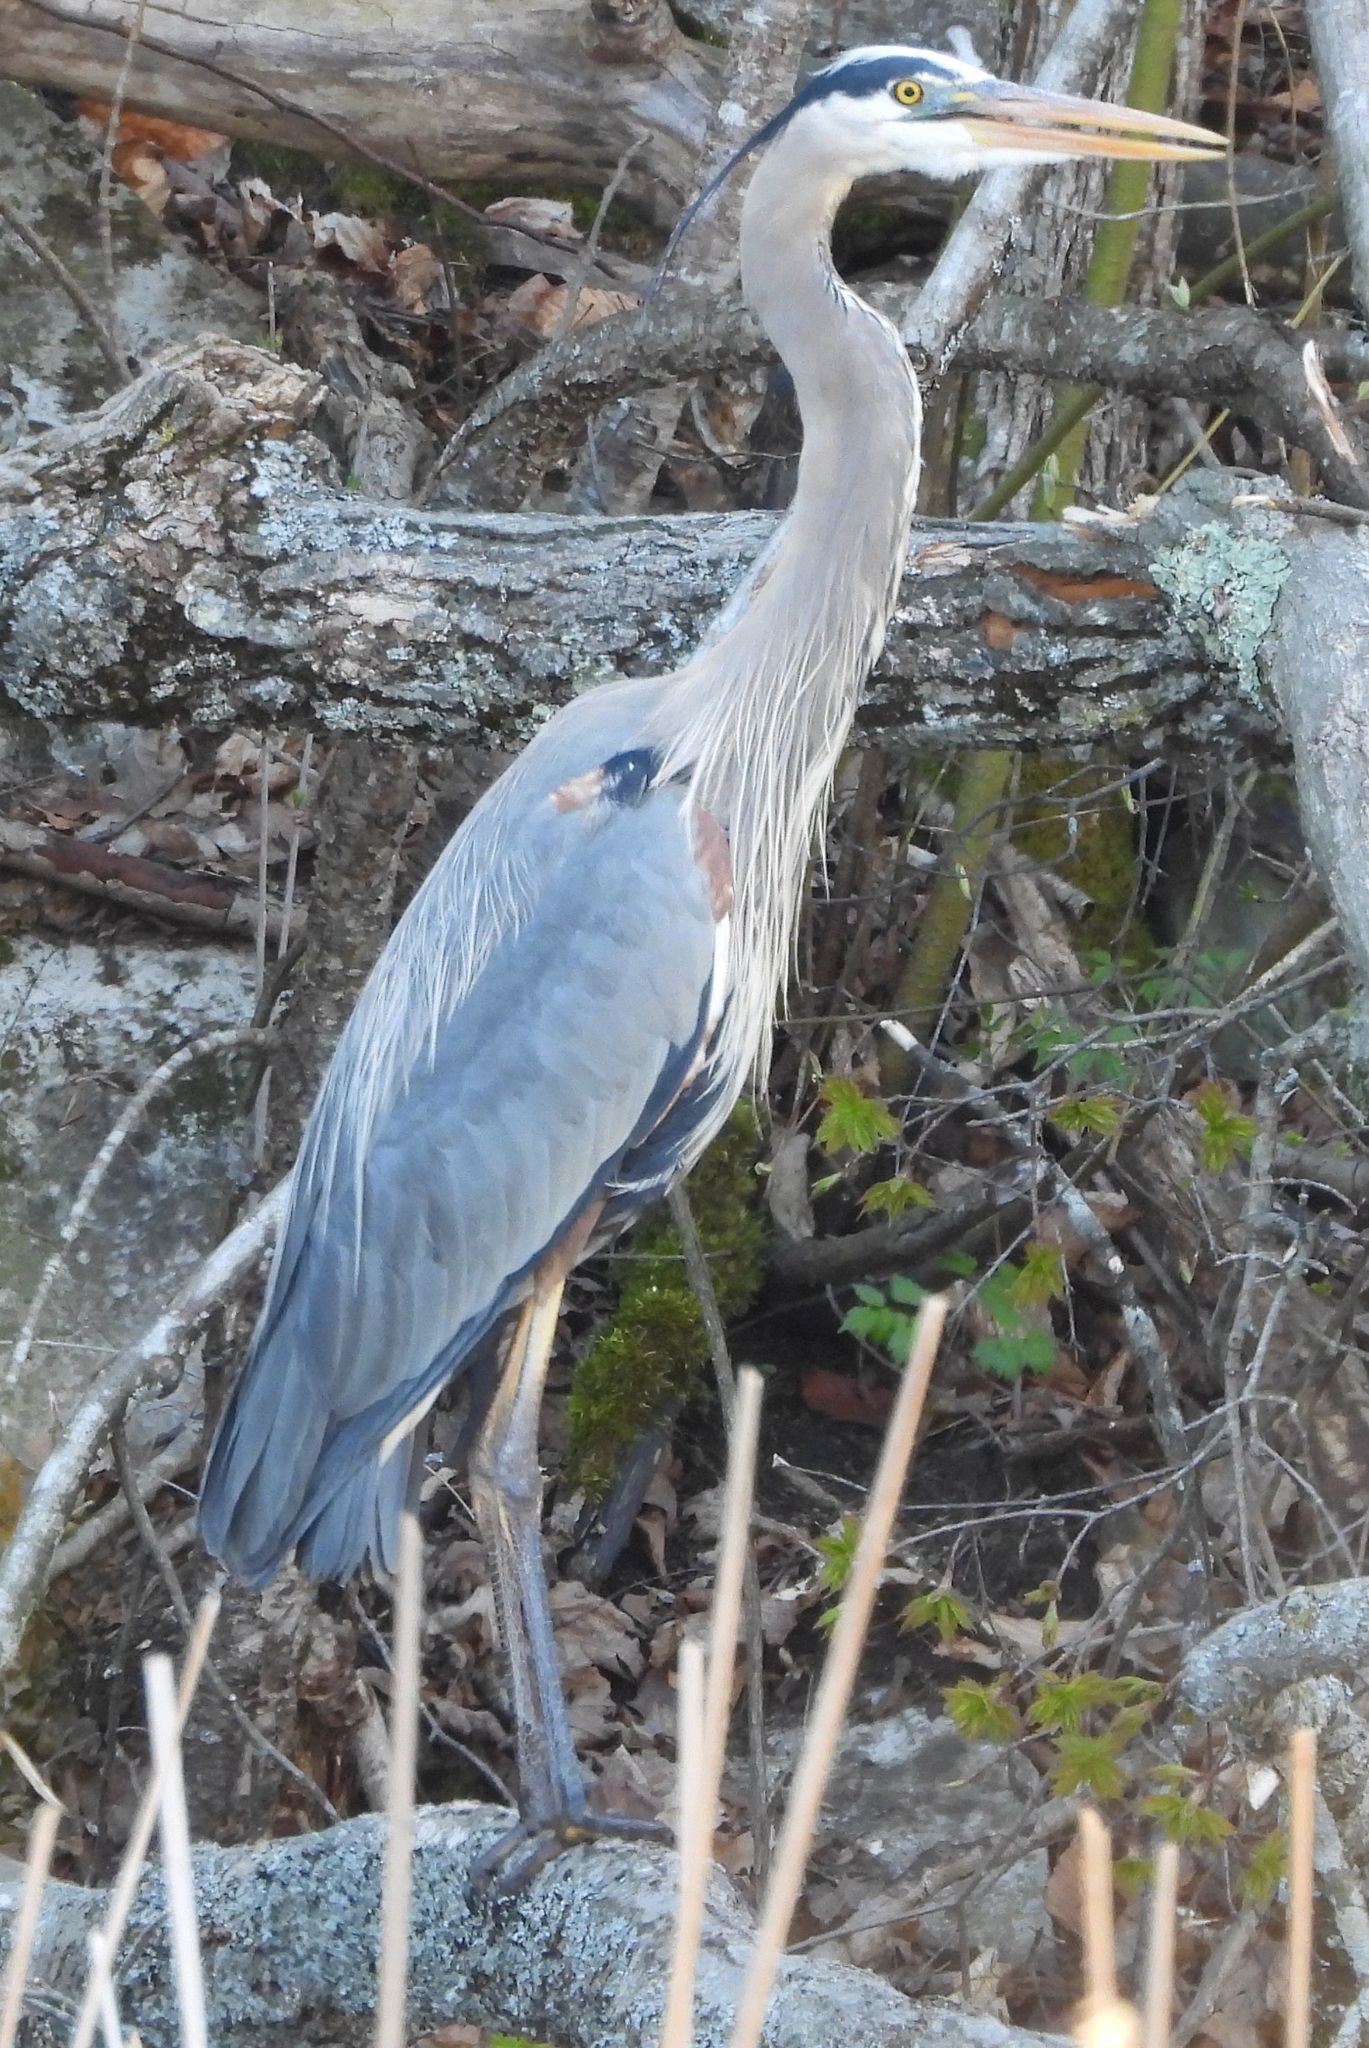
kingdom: Animalia
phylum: Chordata
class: Aves
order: Pelecaniformes
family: Ardeidae
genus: Ardea
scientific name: Ardea herodias
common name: Great blue heron
